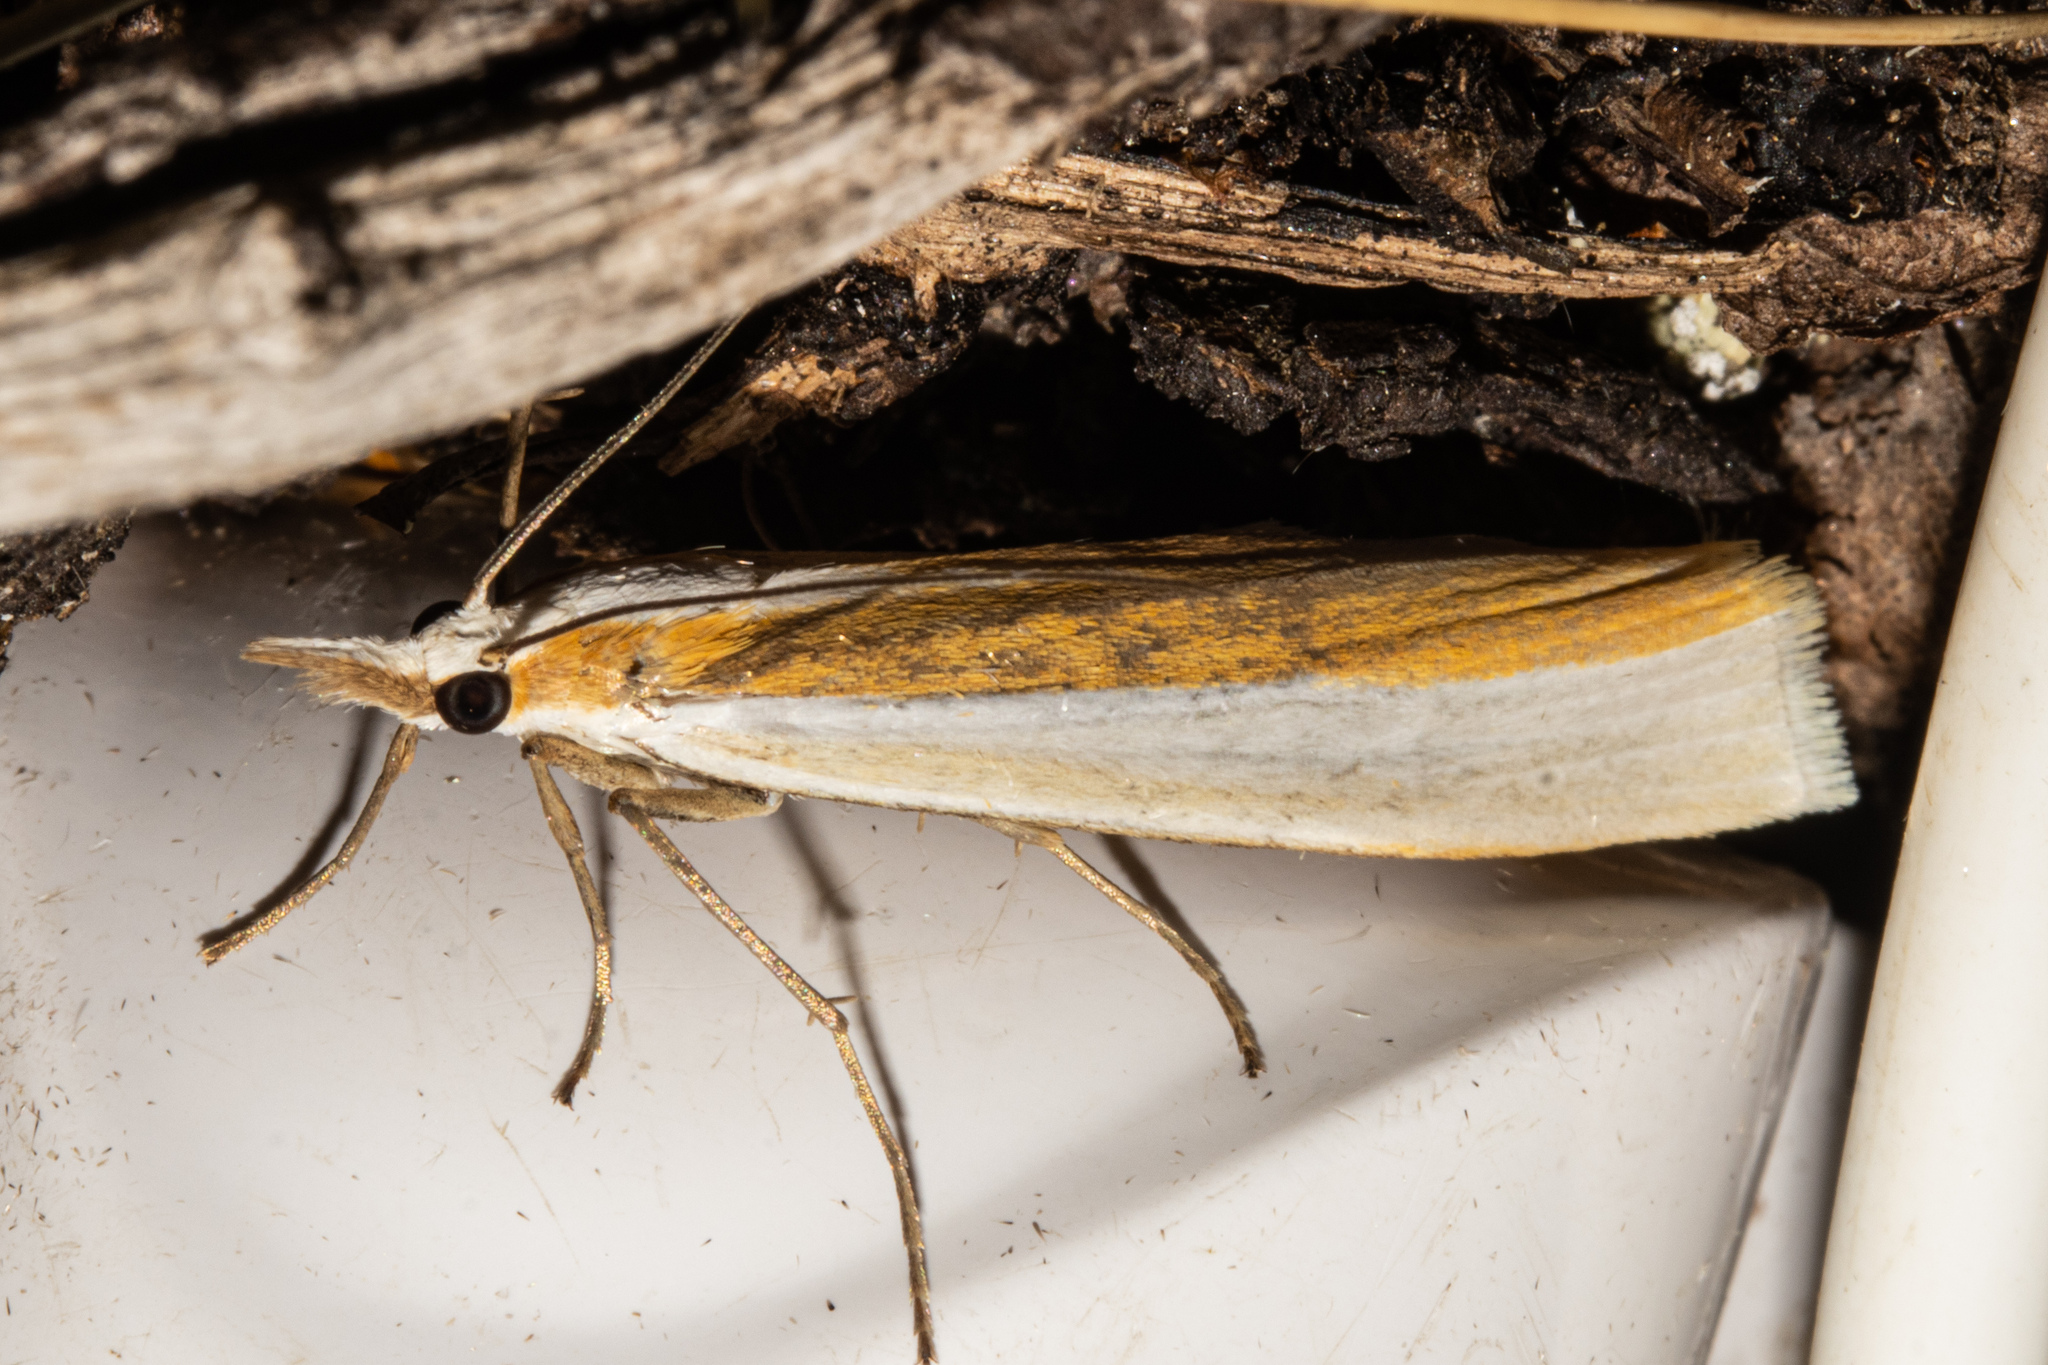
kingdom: Animalia
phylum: Arthropoda
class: Insecta
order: Lepidoptera
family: Crambidae
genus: Orocrambus
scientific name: Orocrambus ephorus
